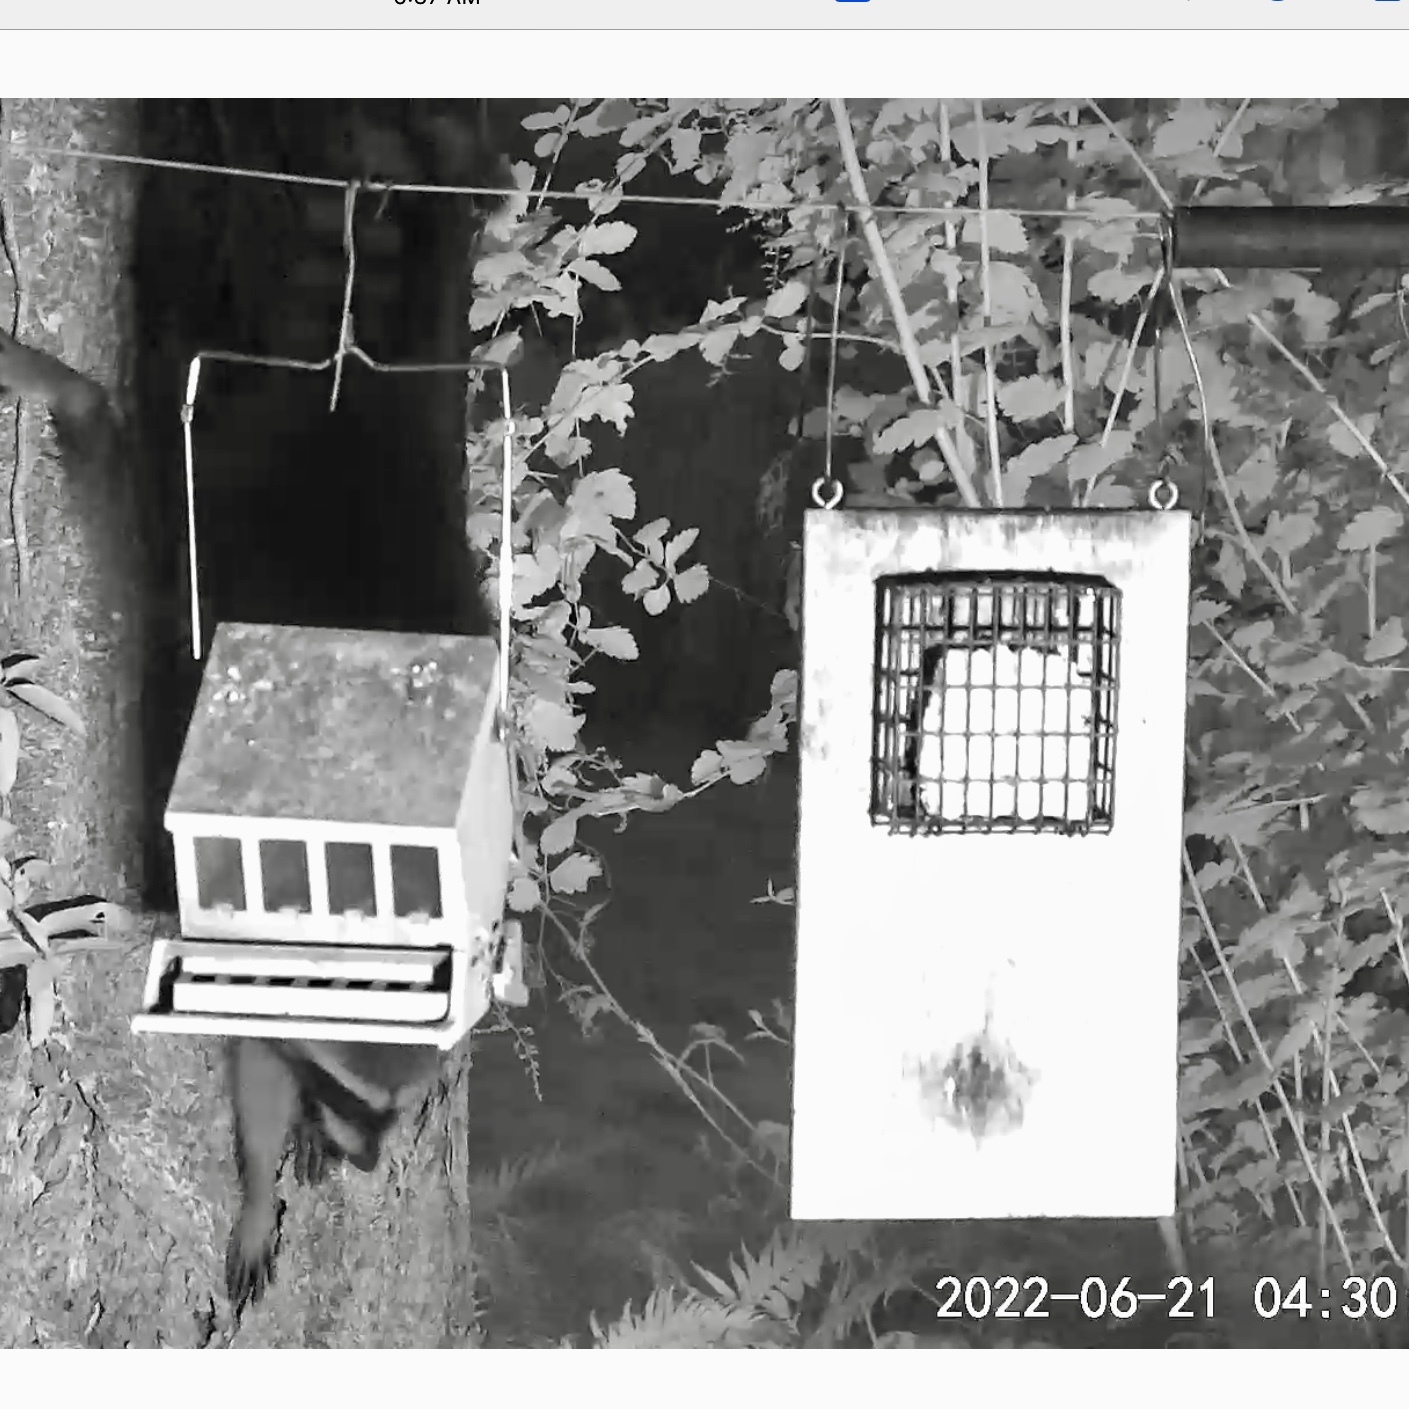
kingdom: Animalia
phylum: Chordata
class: Mammalia
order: Carnivora
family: Procyonidae
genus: Procyon
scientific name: Procyon lotor
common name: Raccoon
